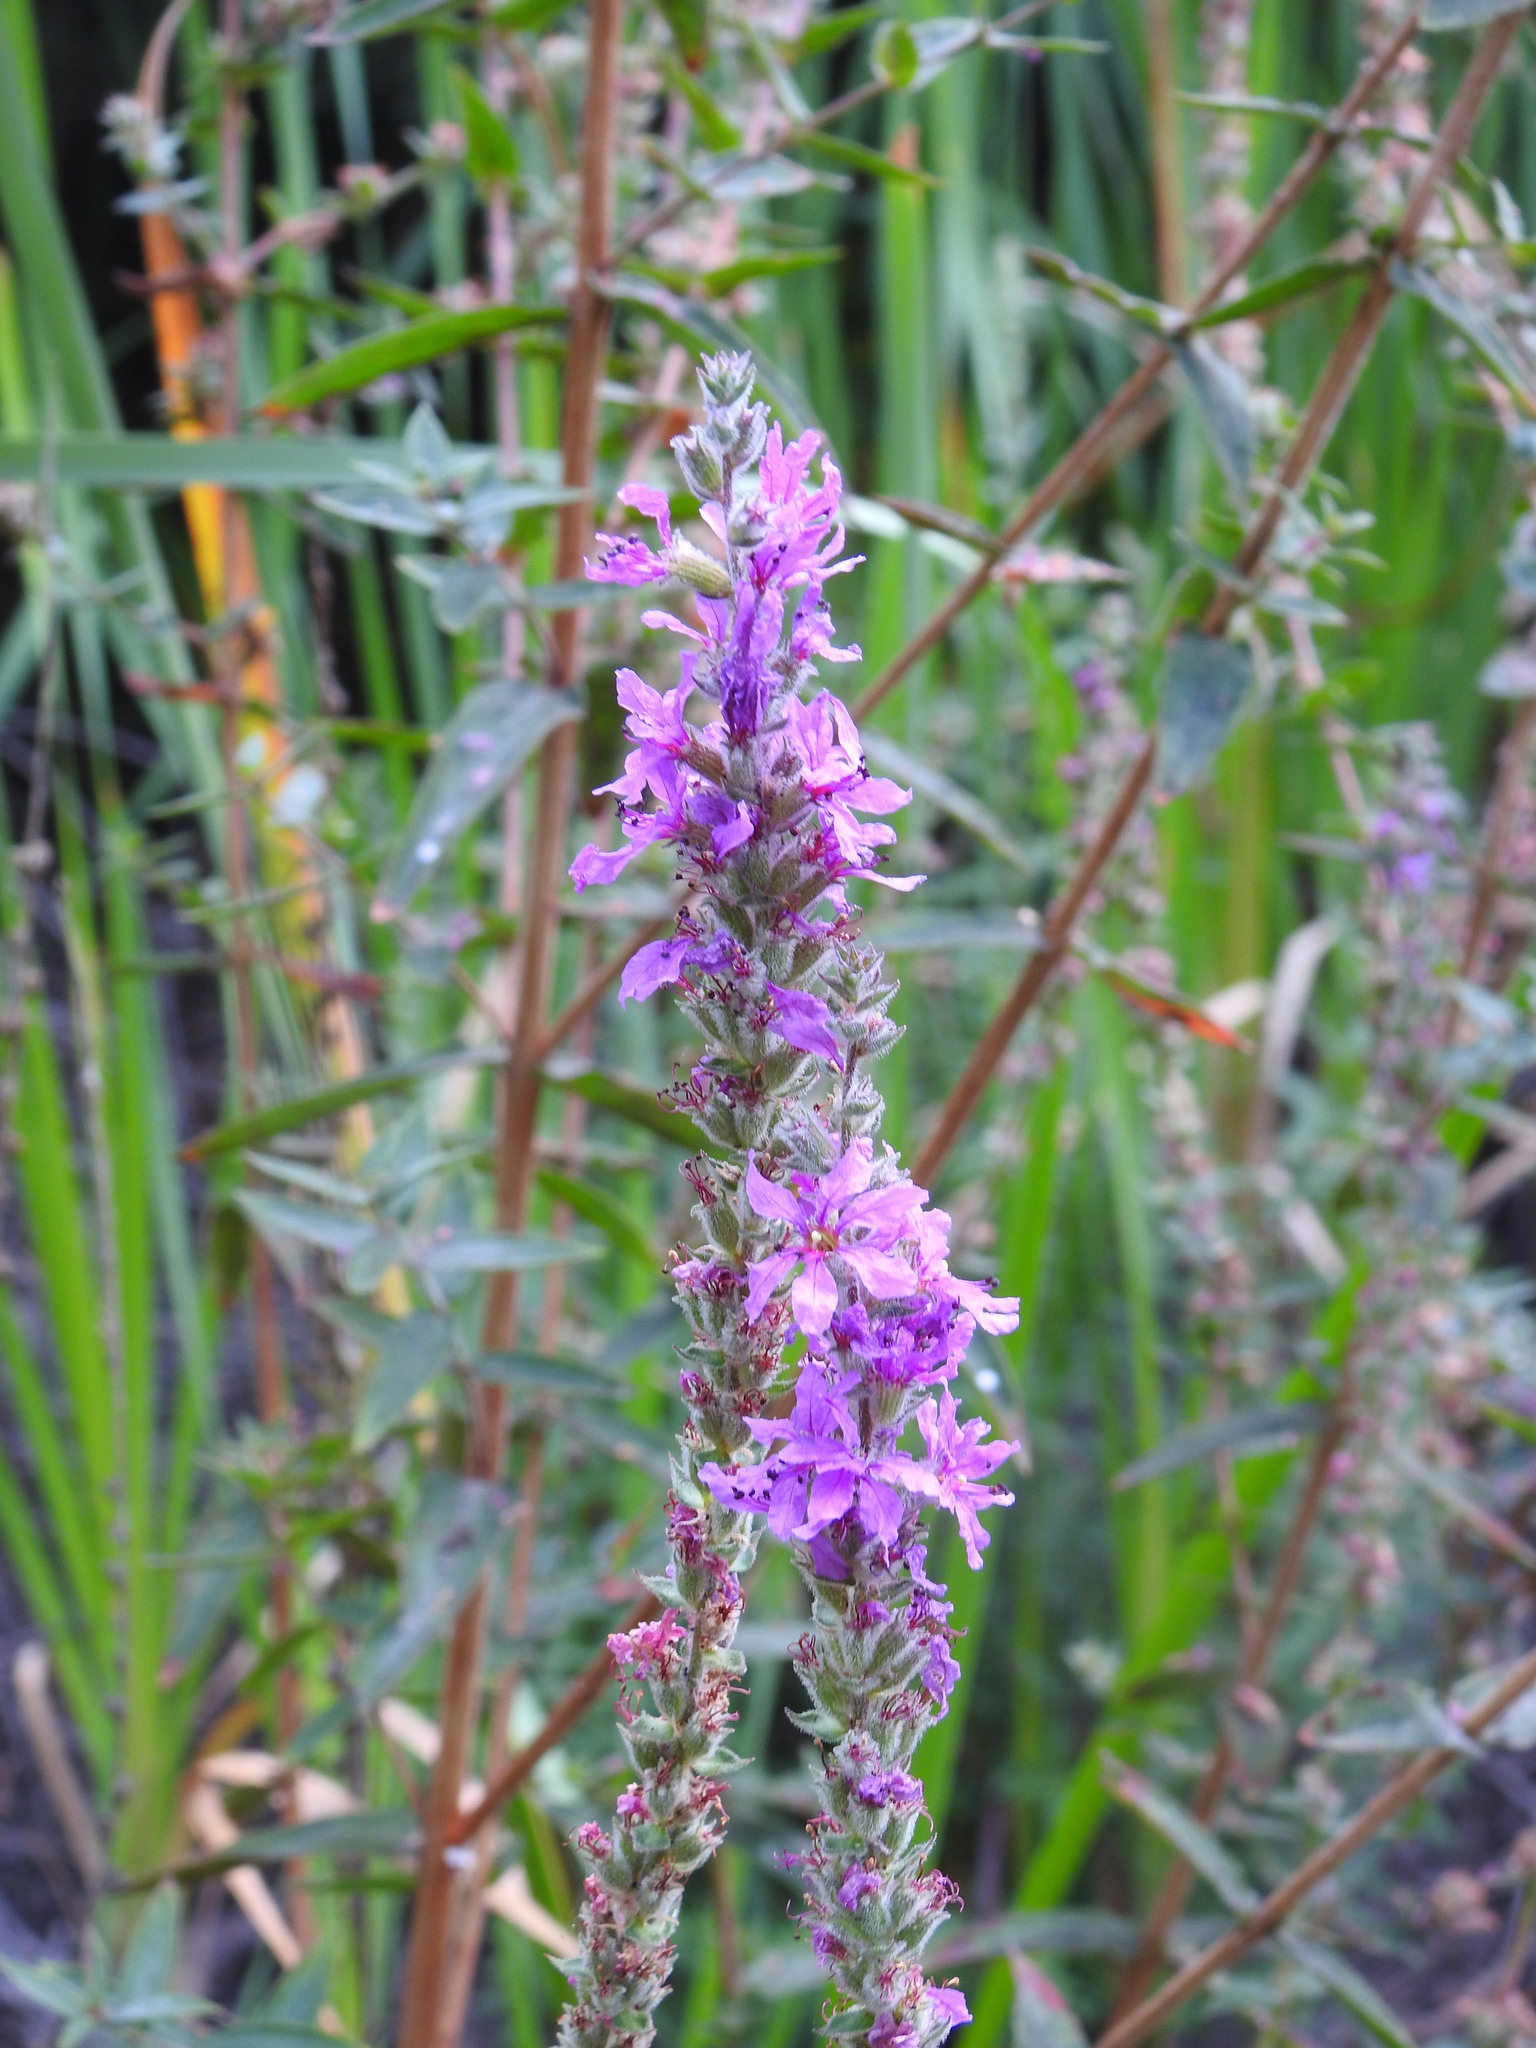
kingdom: Plantae
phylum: Tracheophyta
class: Magnoliopsida
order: Myrtales
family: Lythraceae
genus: Lythrum
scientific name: Lythrum salicaria
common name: Purple loosestrife
